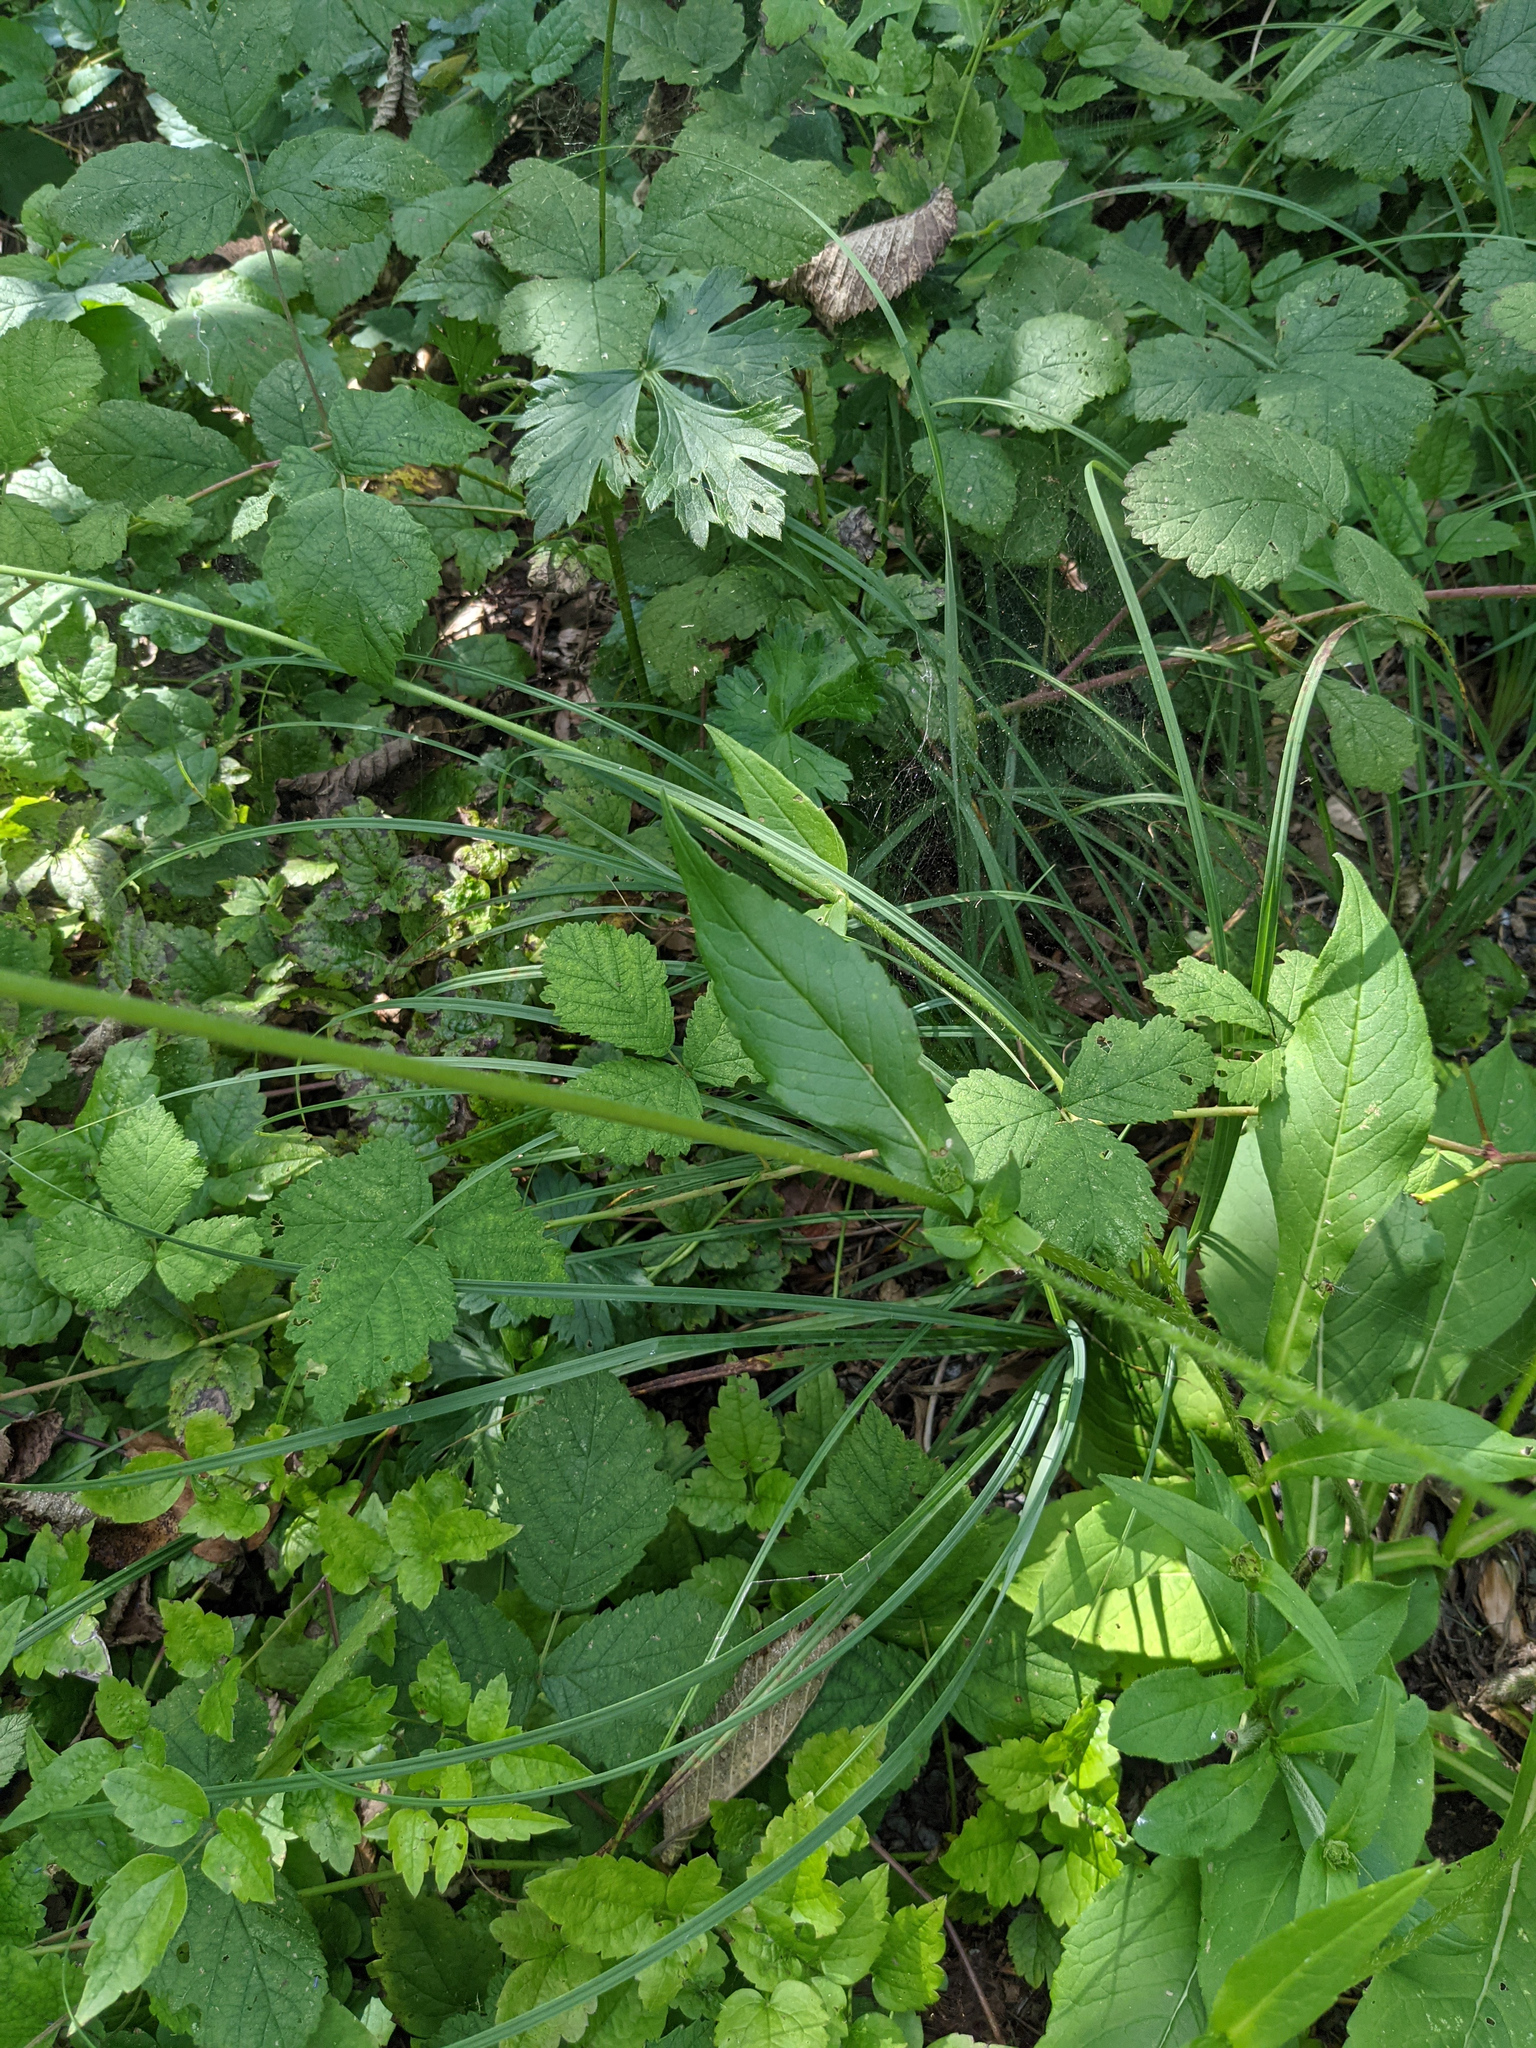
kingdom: Plantae
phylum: Tracheophyta
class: Magnoliopsida
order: Dipsacales
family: Caprifoliaceae
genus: Knautia
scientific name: Knautia dipsacifolia
